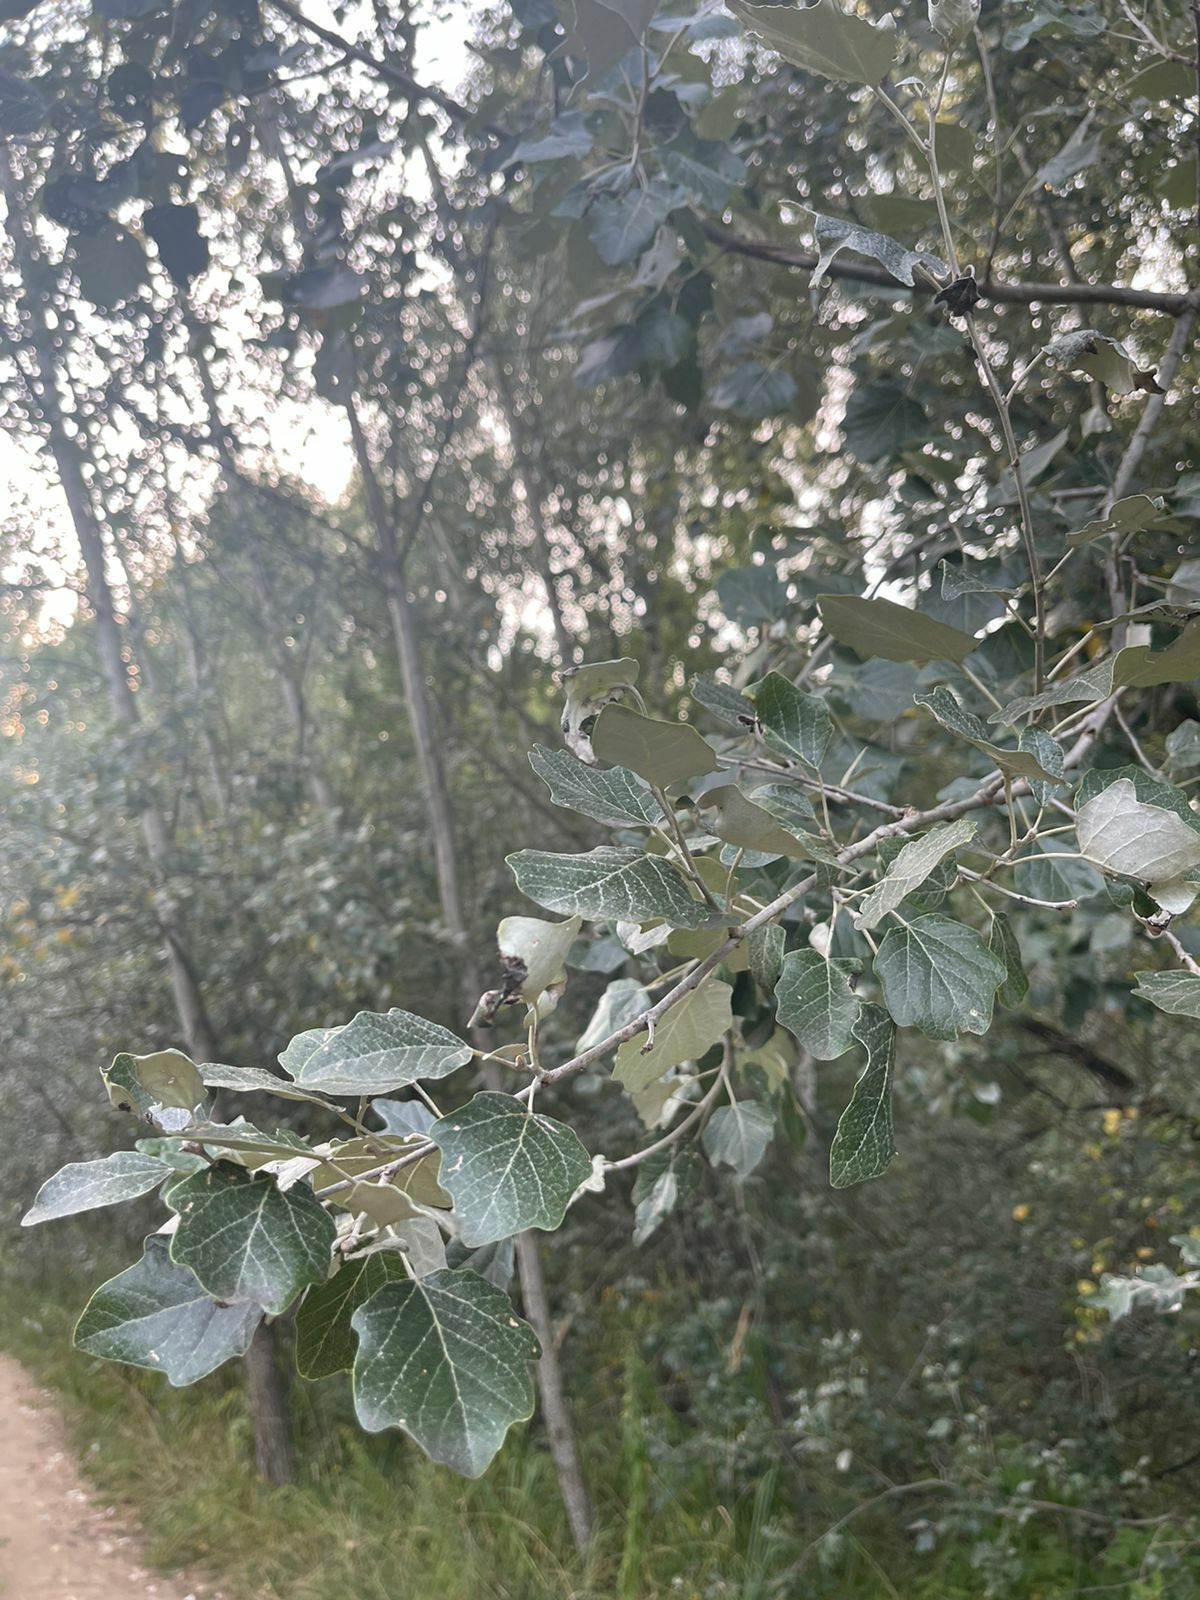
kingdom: Plantae
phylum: Tracheophyta
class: Magnoliopsida
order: Malpighiales
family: Salicaceae
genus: Populus
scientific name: Populus alba
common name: White poplar
